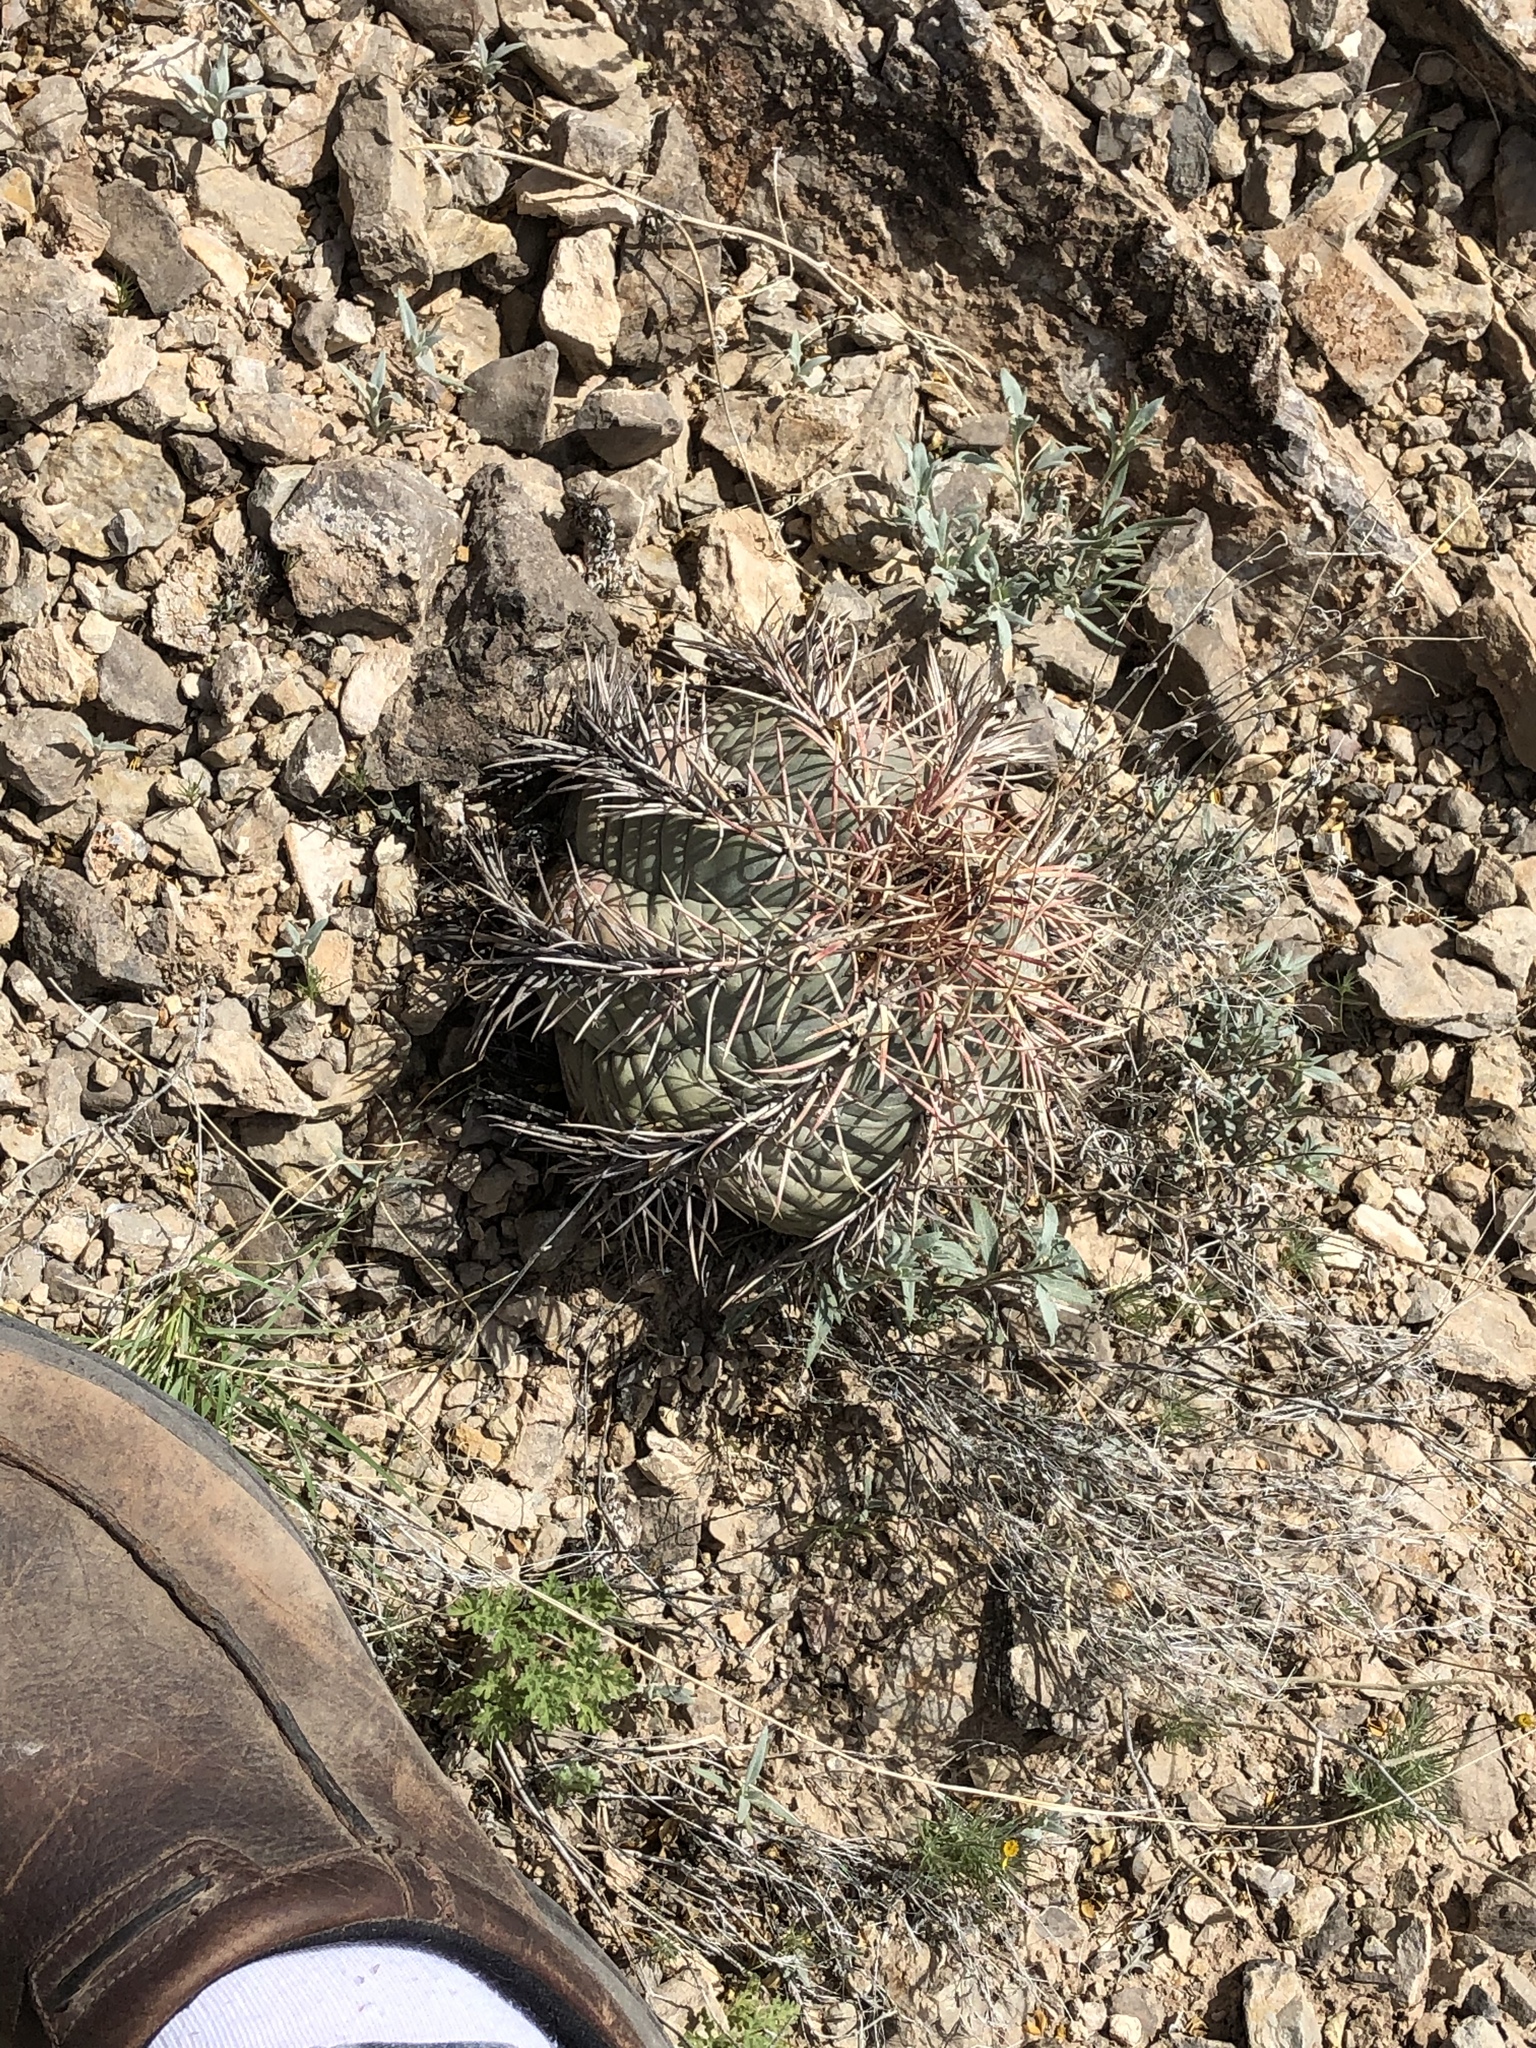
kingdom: Plantae
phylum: Tracheophyta
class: Magnoliopsida
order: Caryophyllales
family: Cactaceae
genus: Echinocactus
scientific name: Echinocactus horizonthalonius
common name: Devilshead
